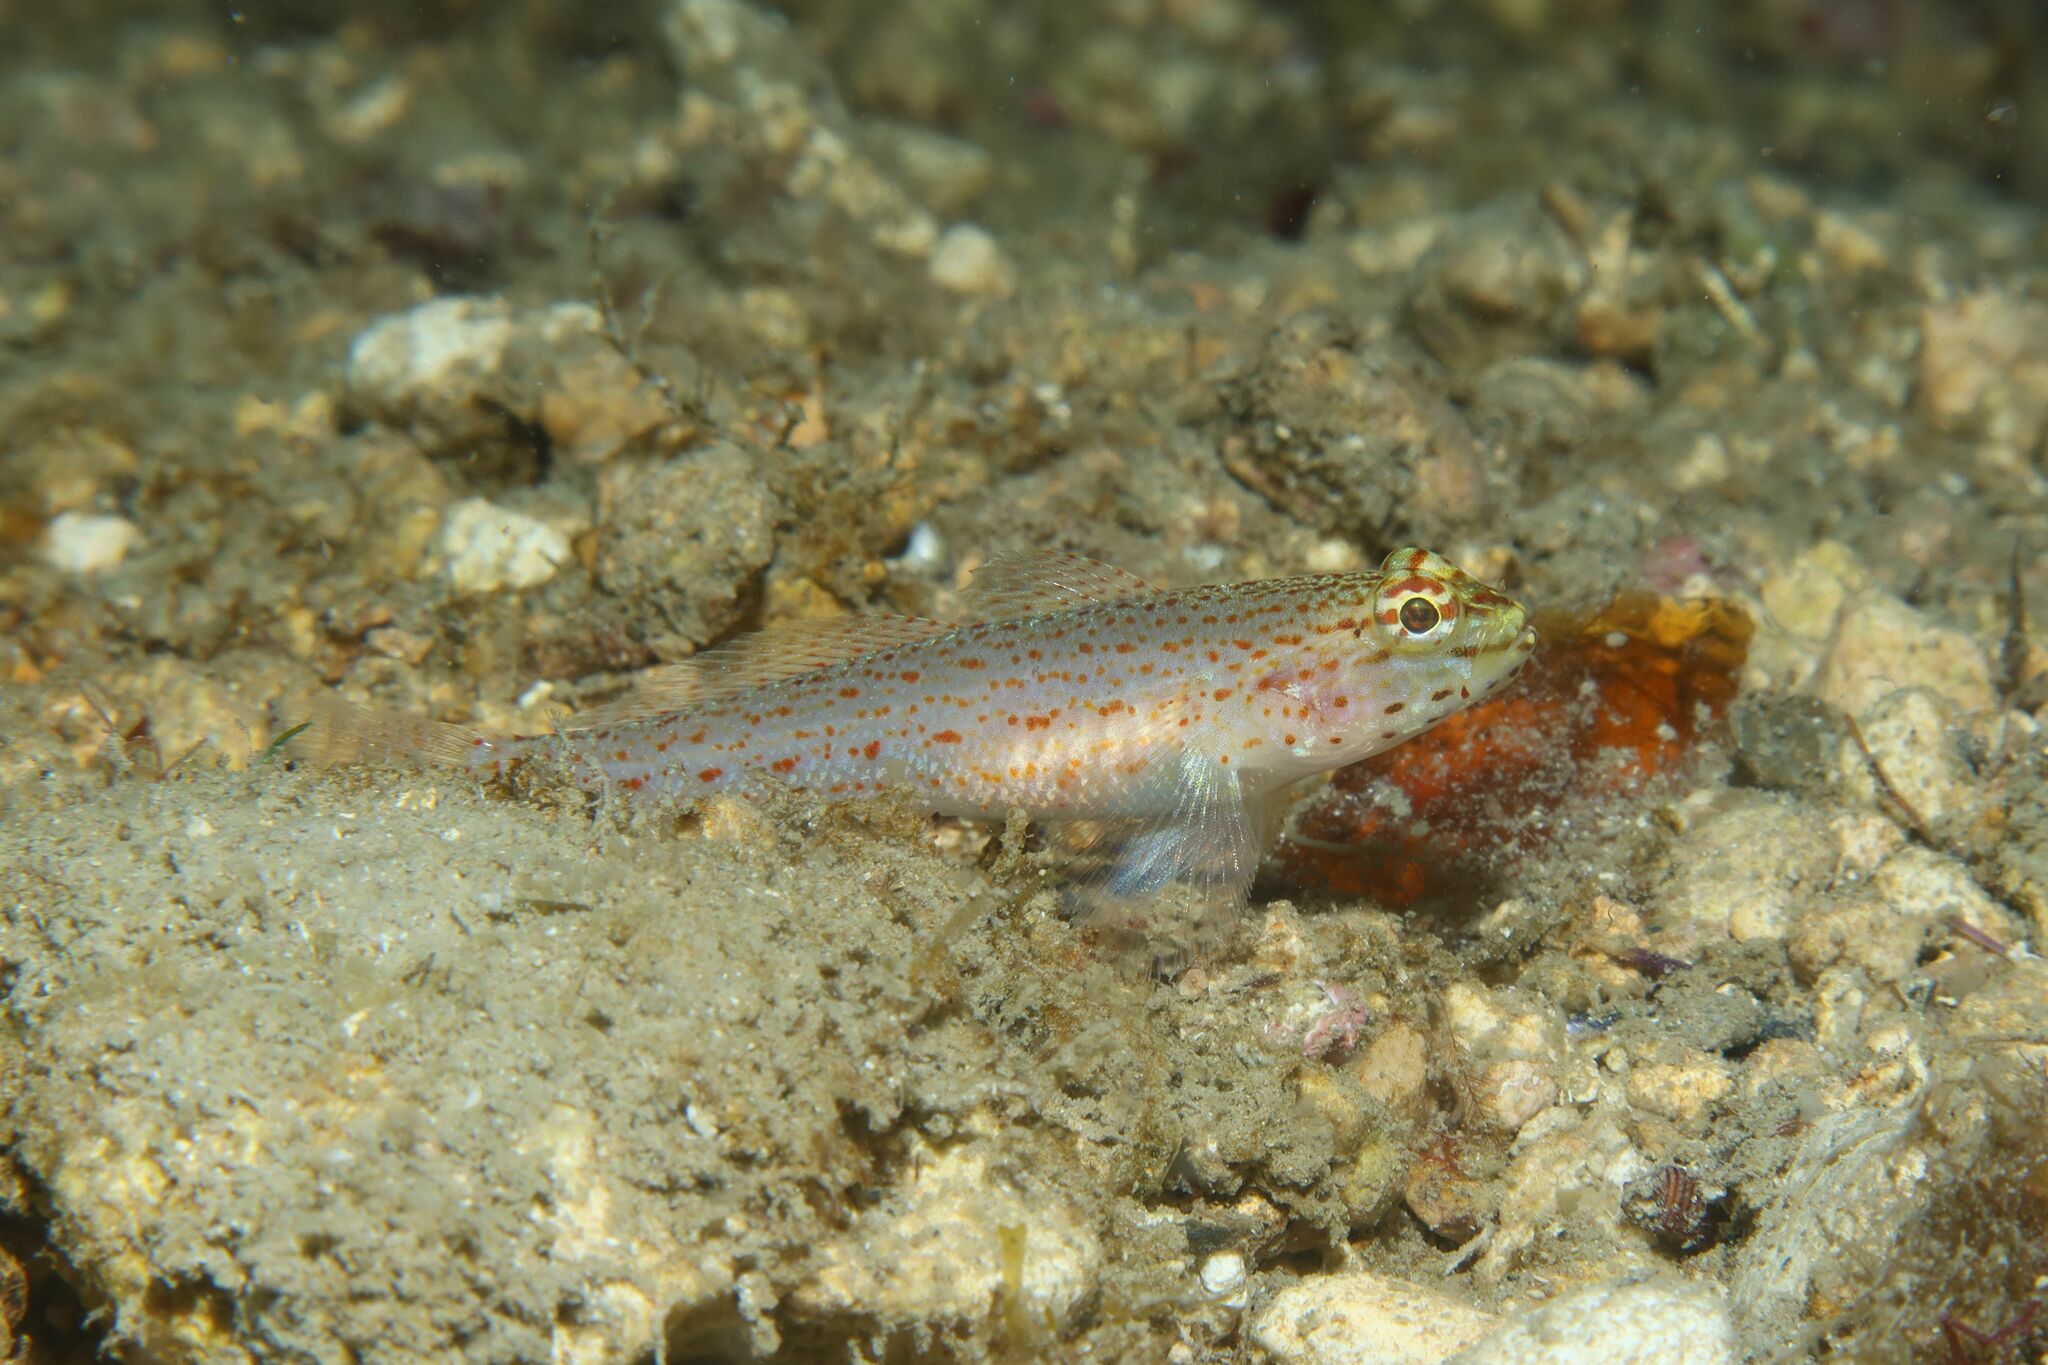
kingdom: Animalia
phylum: Chordata
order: Perciformes
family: Gobiidae
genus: Gobius
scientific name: Gobius xanthocephalus
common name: Golden goby
